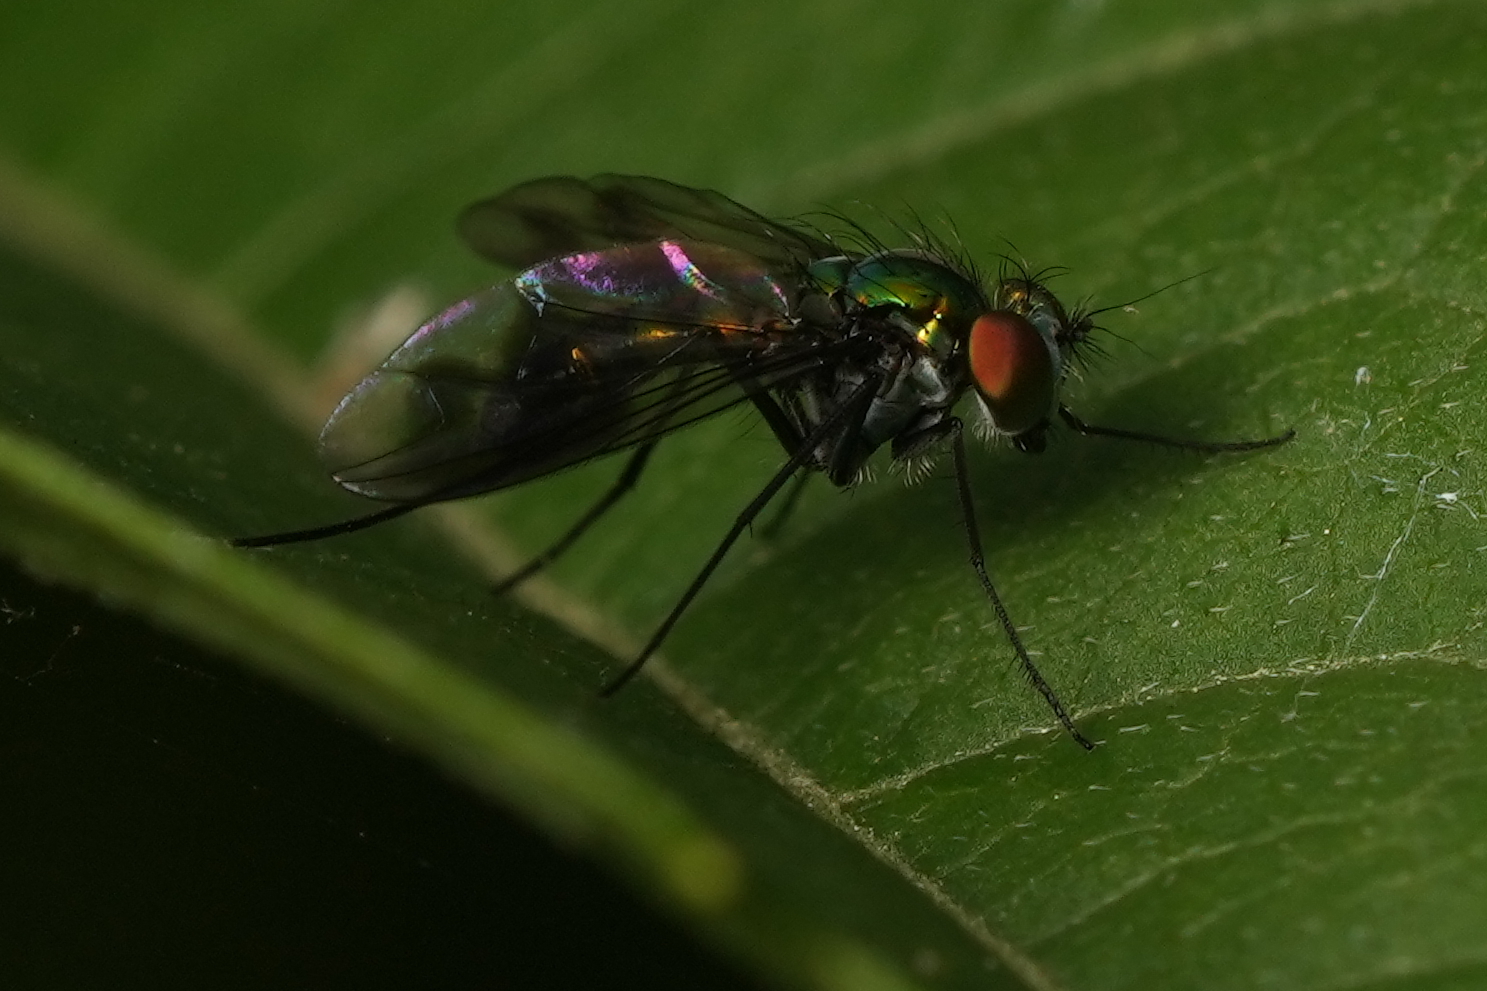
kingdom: Animalia
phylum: Arthropoda
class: Insecta
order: Diptera
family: Dolichopodidae
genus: Condylostylus
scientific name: Condylostylus patibulatus
